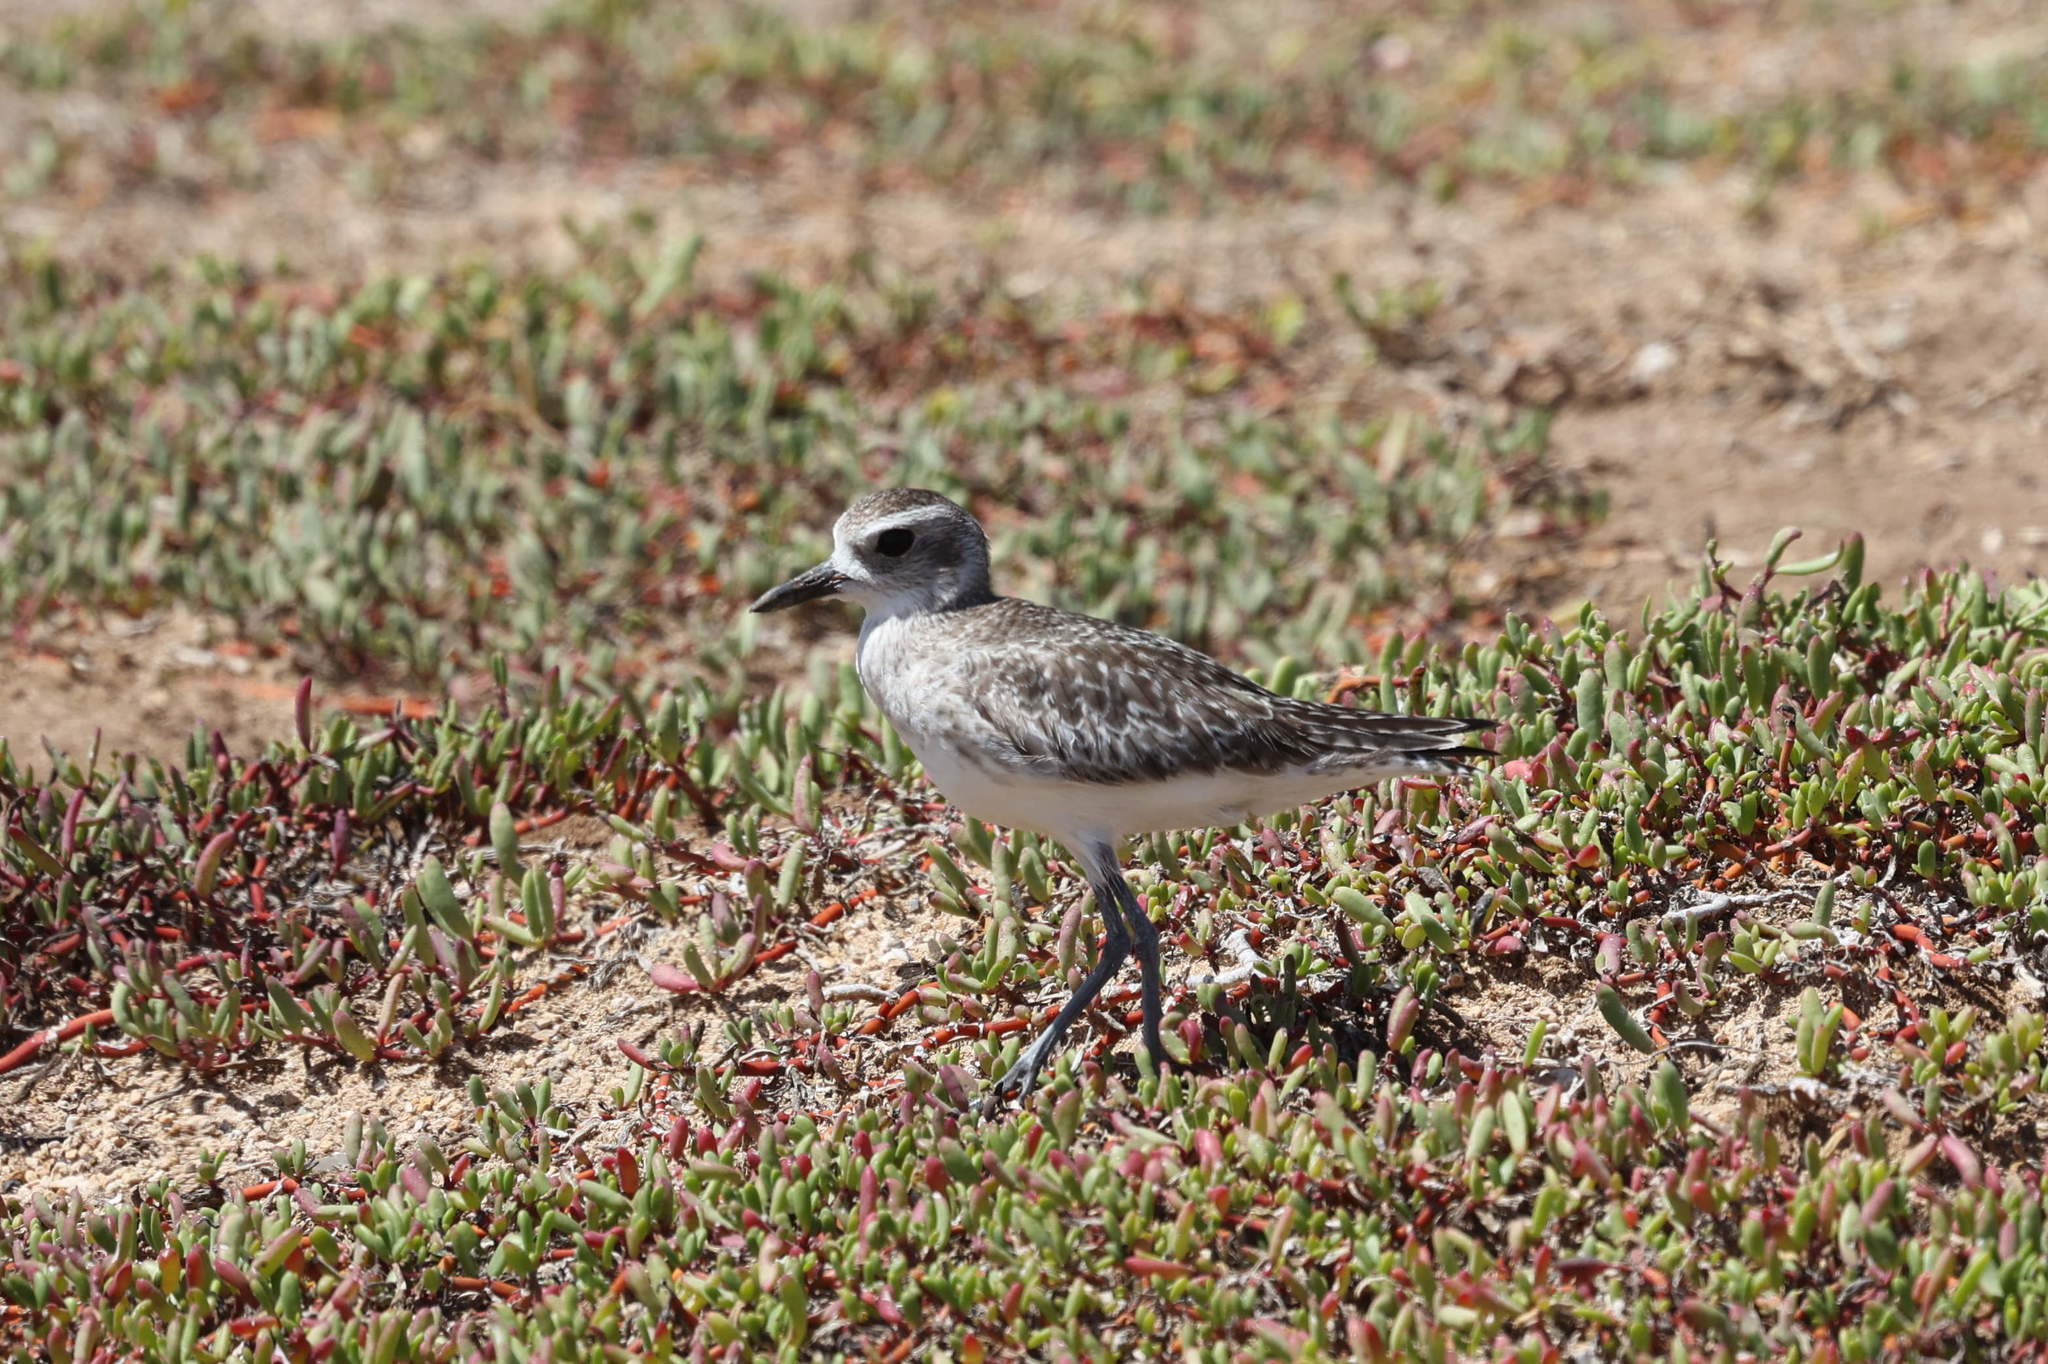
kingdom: Animalia
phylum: Chordata
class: Aves
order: Charadriiformes
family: Charadriidae
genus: Pluvialis
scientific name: Pluvialis squatarola
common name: Grey plover
